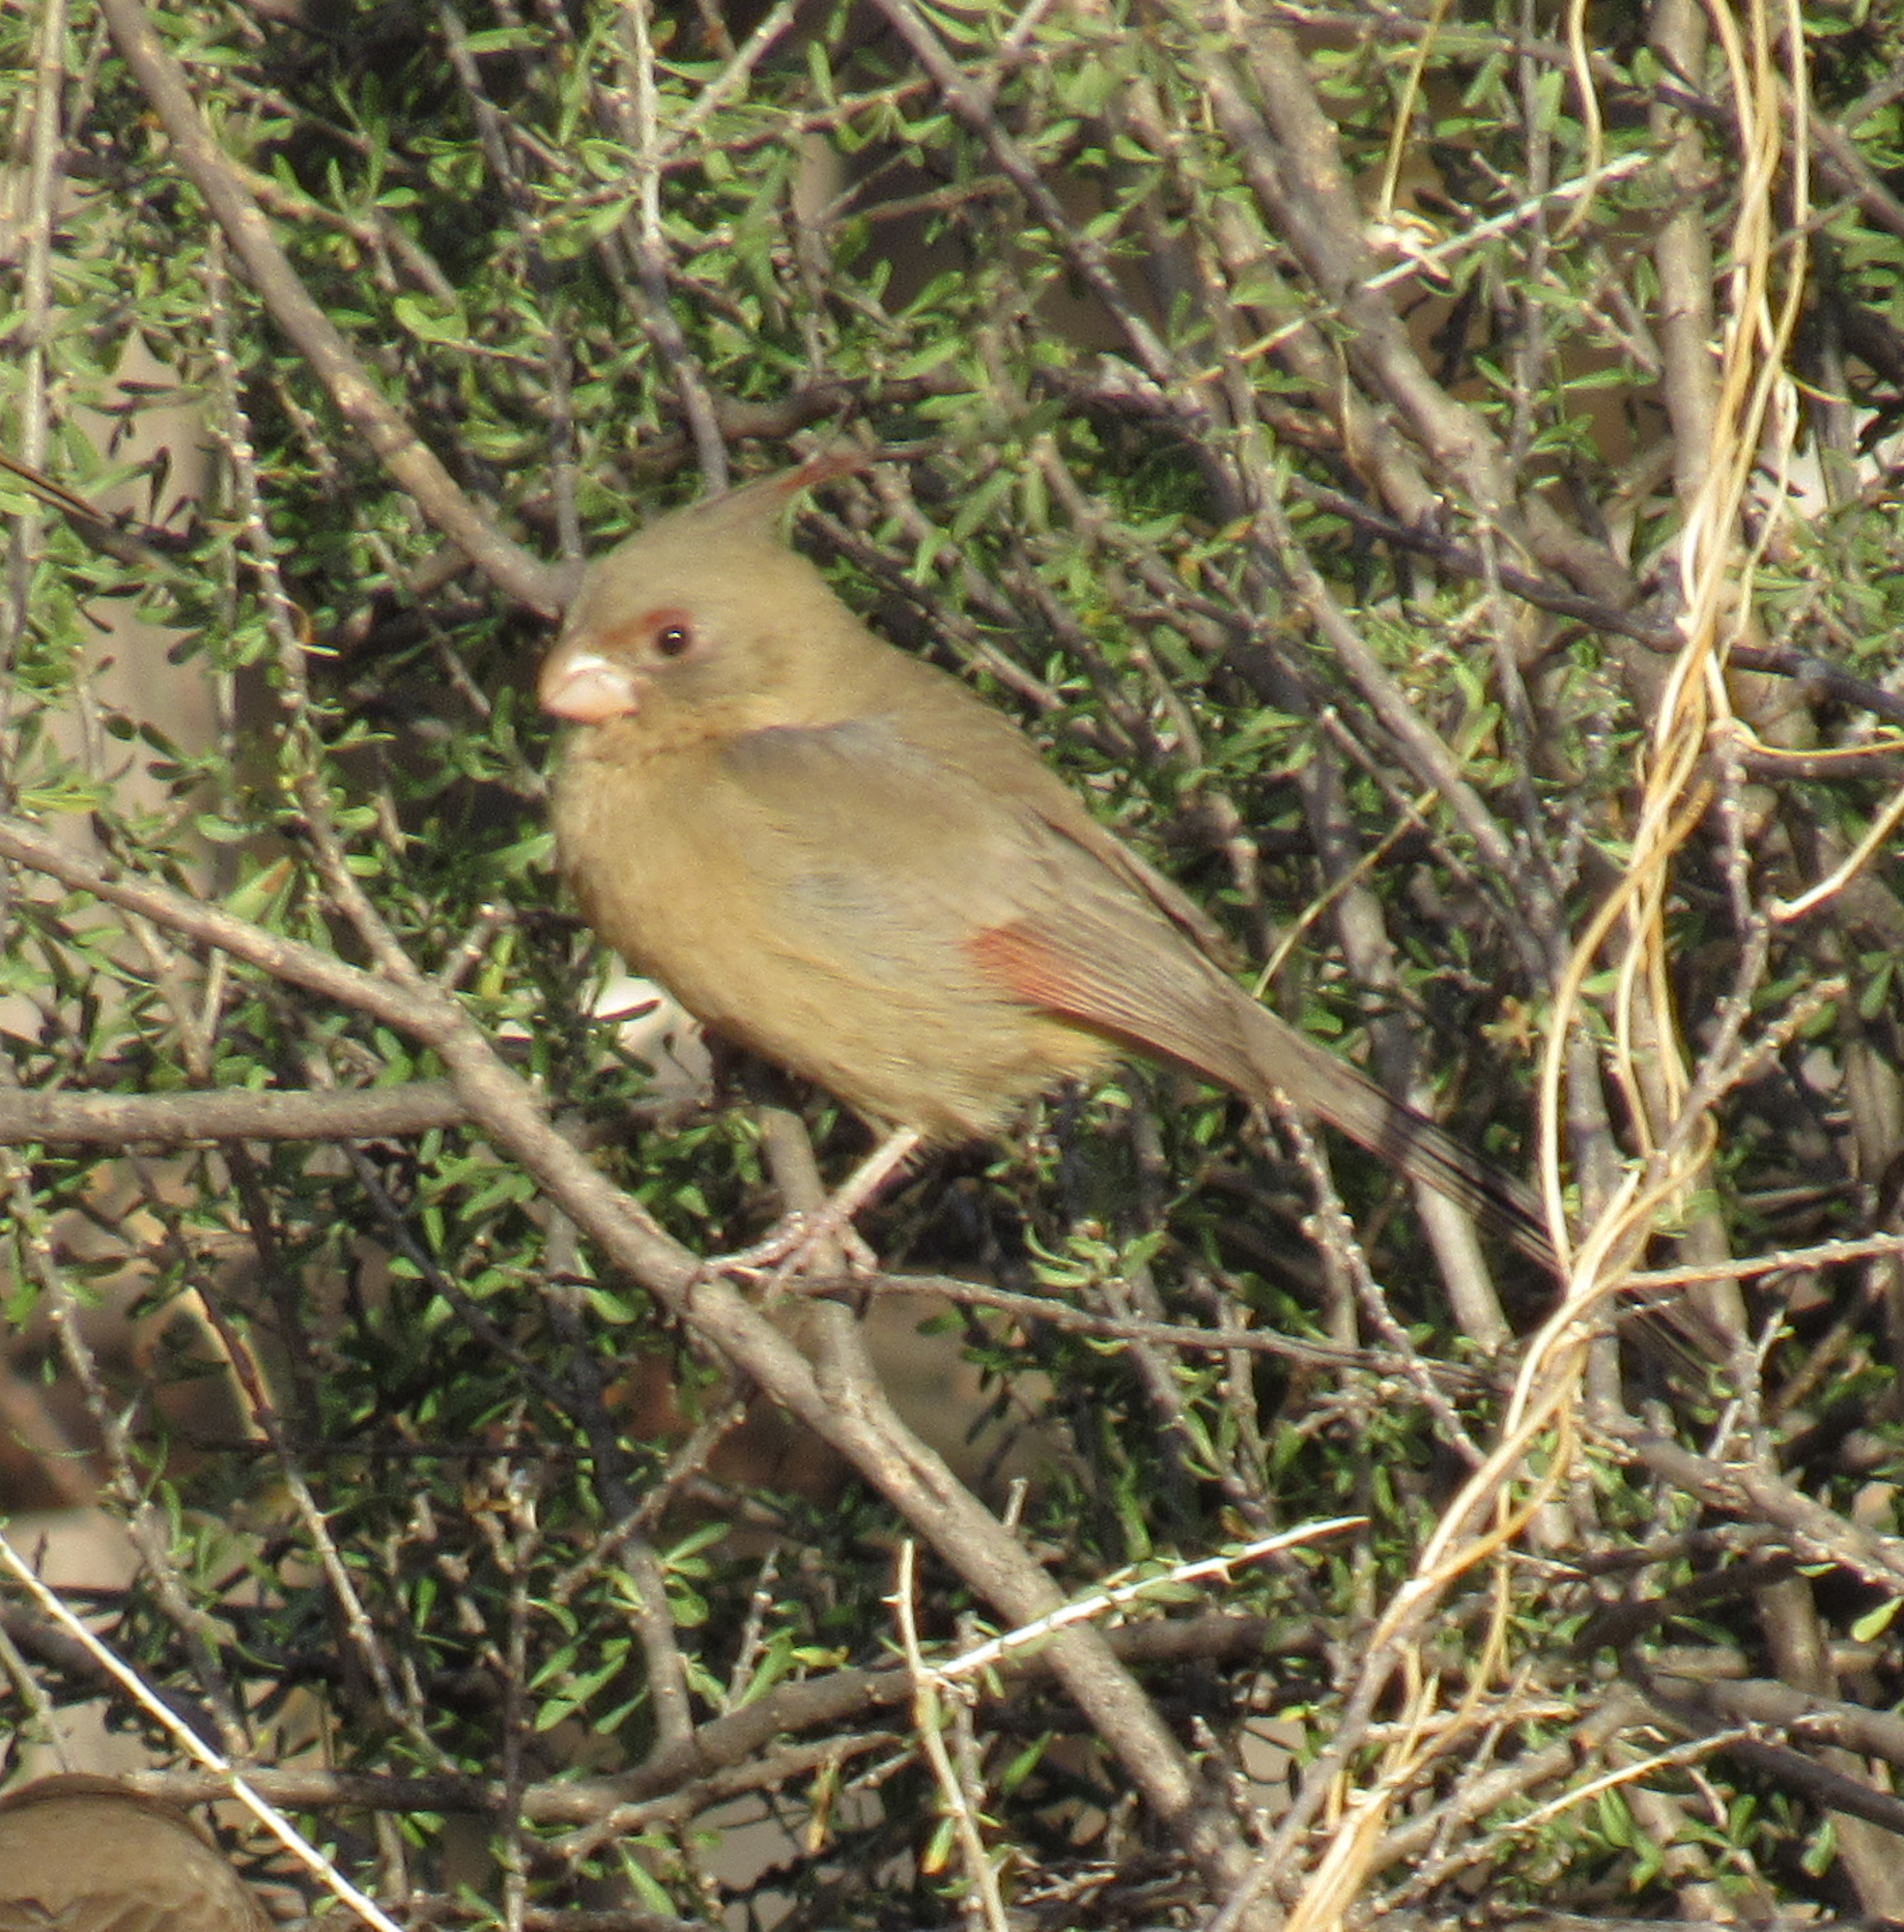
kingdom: Animalia
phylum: Chordata
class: Aves
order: Passeriformes
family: Cardinalidae
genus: Cardinalis
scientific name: Cardinalis sinuatus
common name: Pyrrhuloxia
